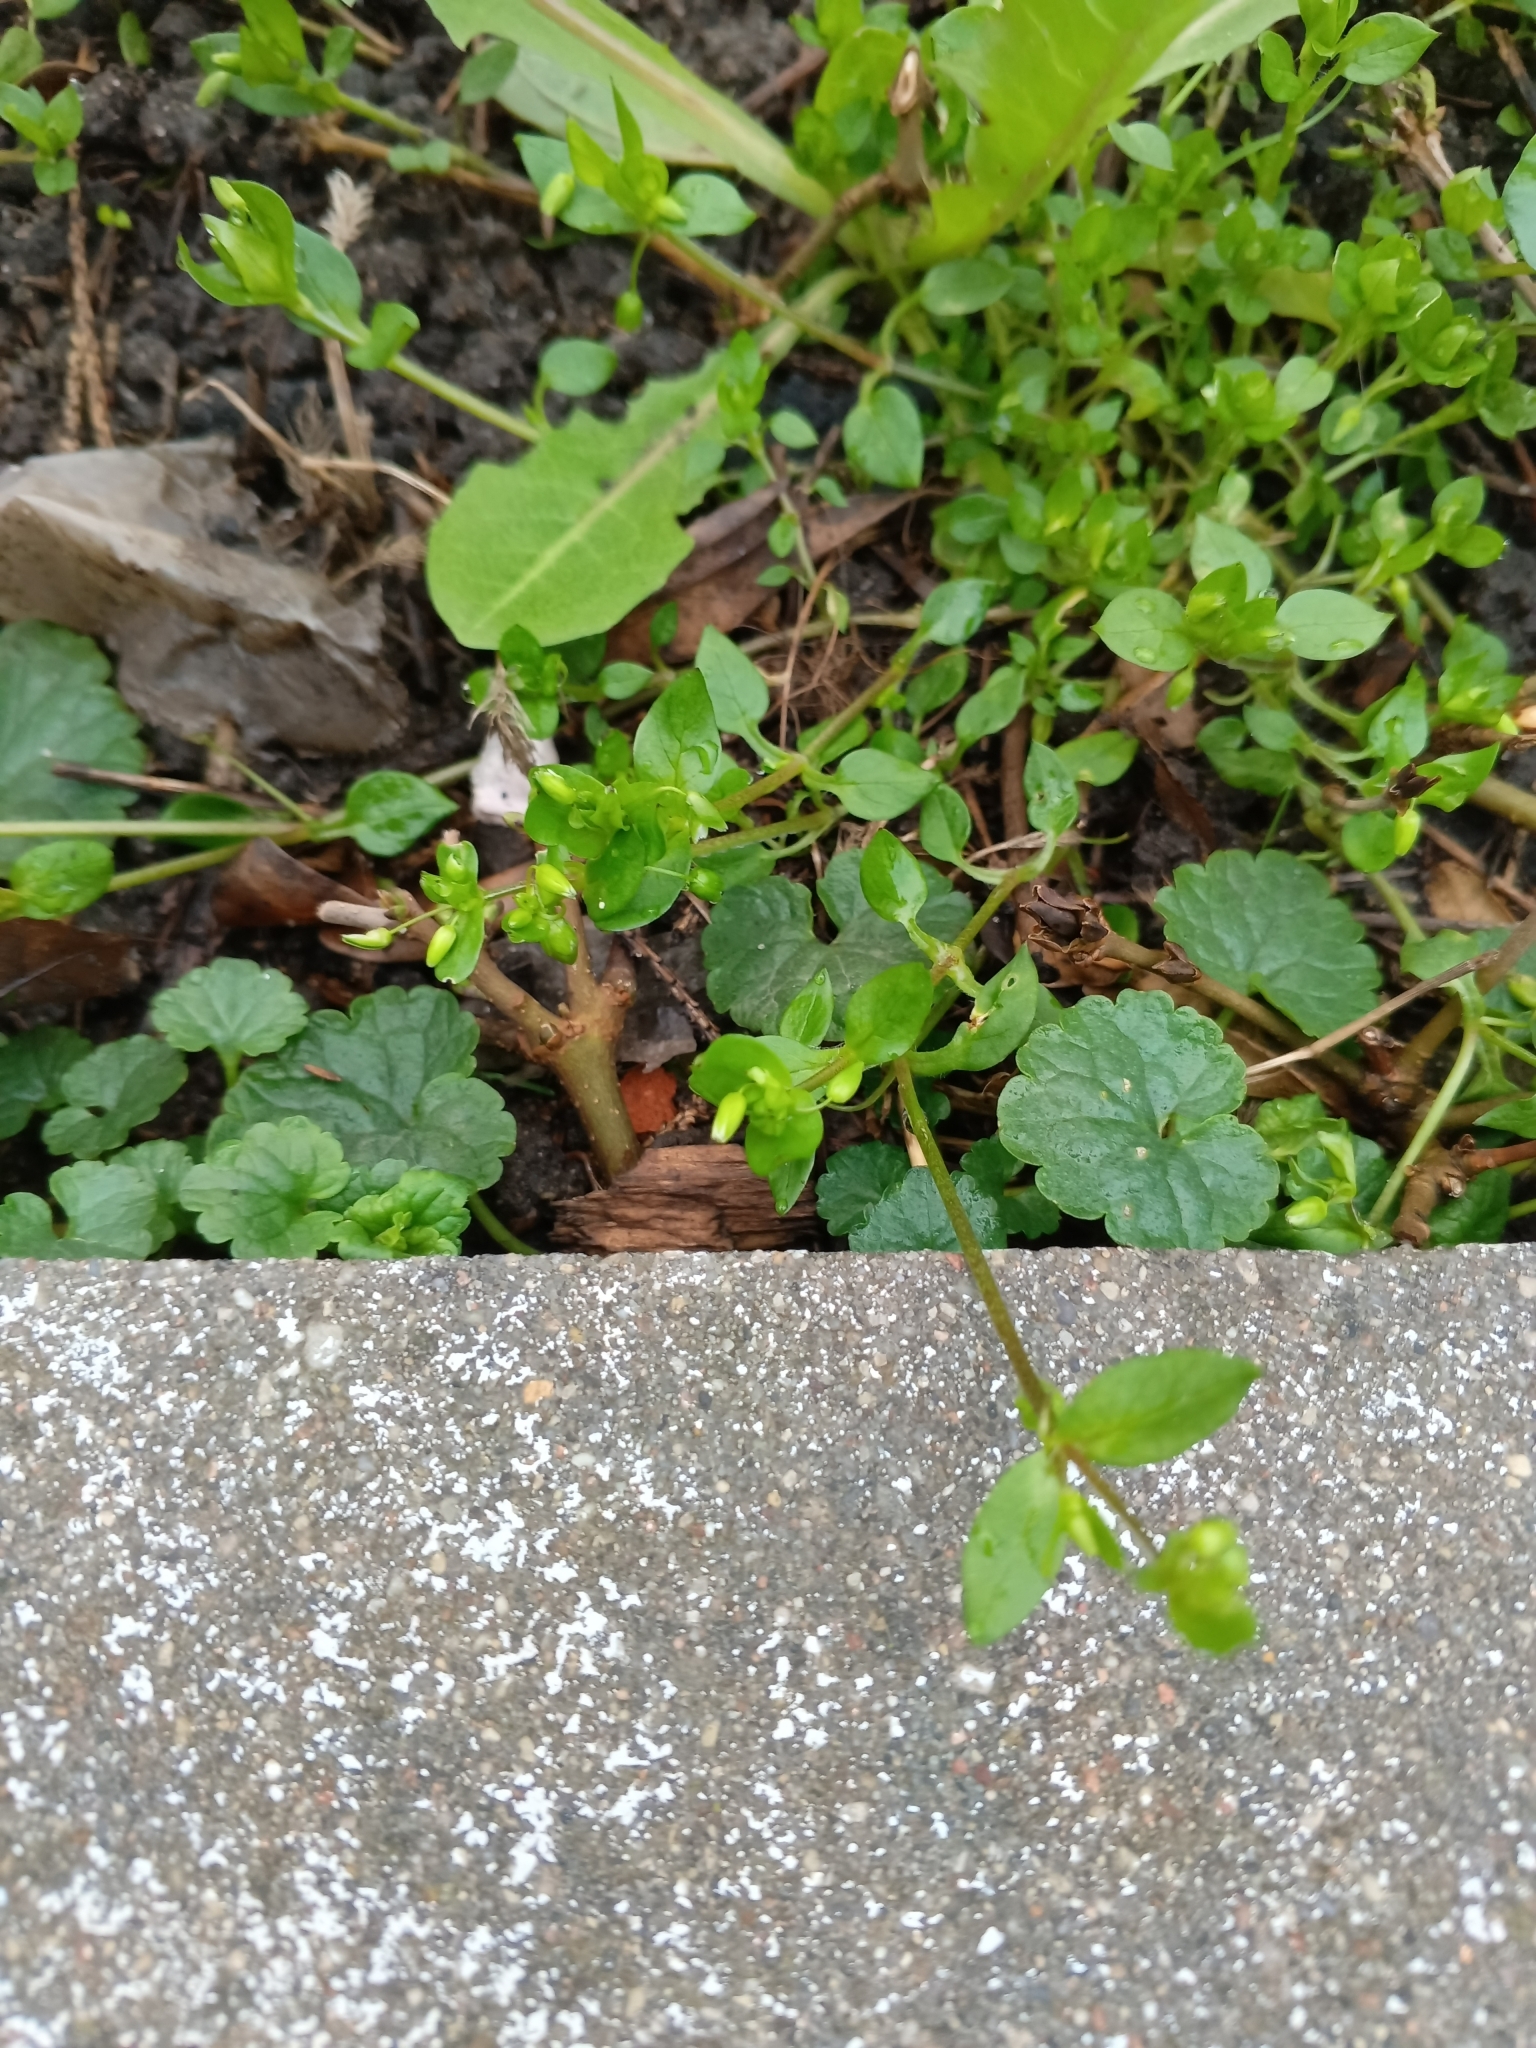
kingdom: Plantae
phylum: Tracheophyta
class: Magnoliopsida
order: Caryophyllales
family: Caryophyllaceae
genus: Stellaria
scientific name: Stellaria media
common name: Common chickweed
